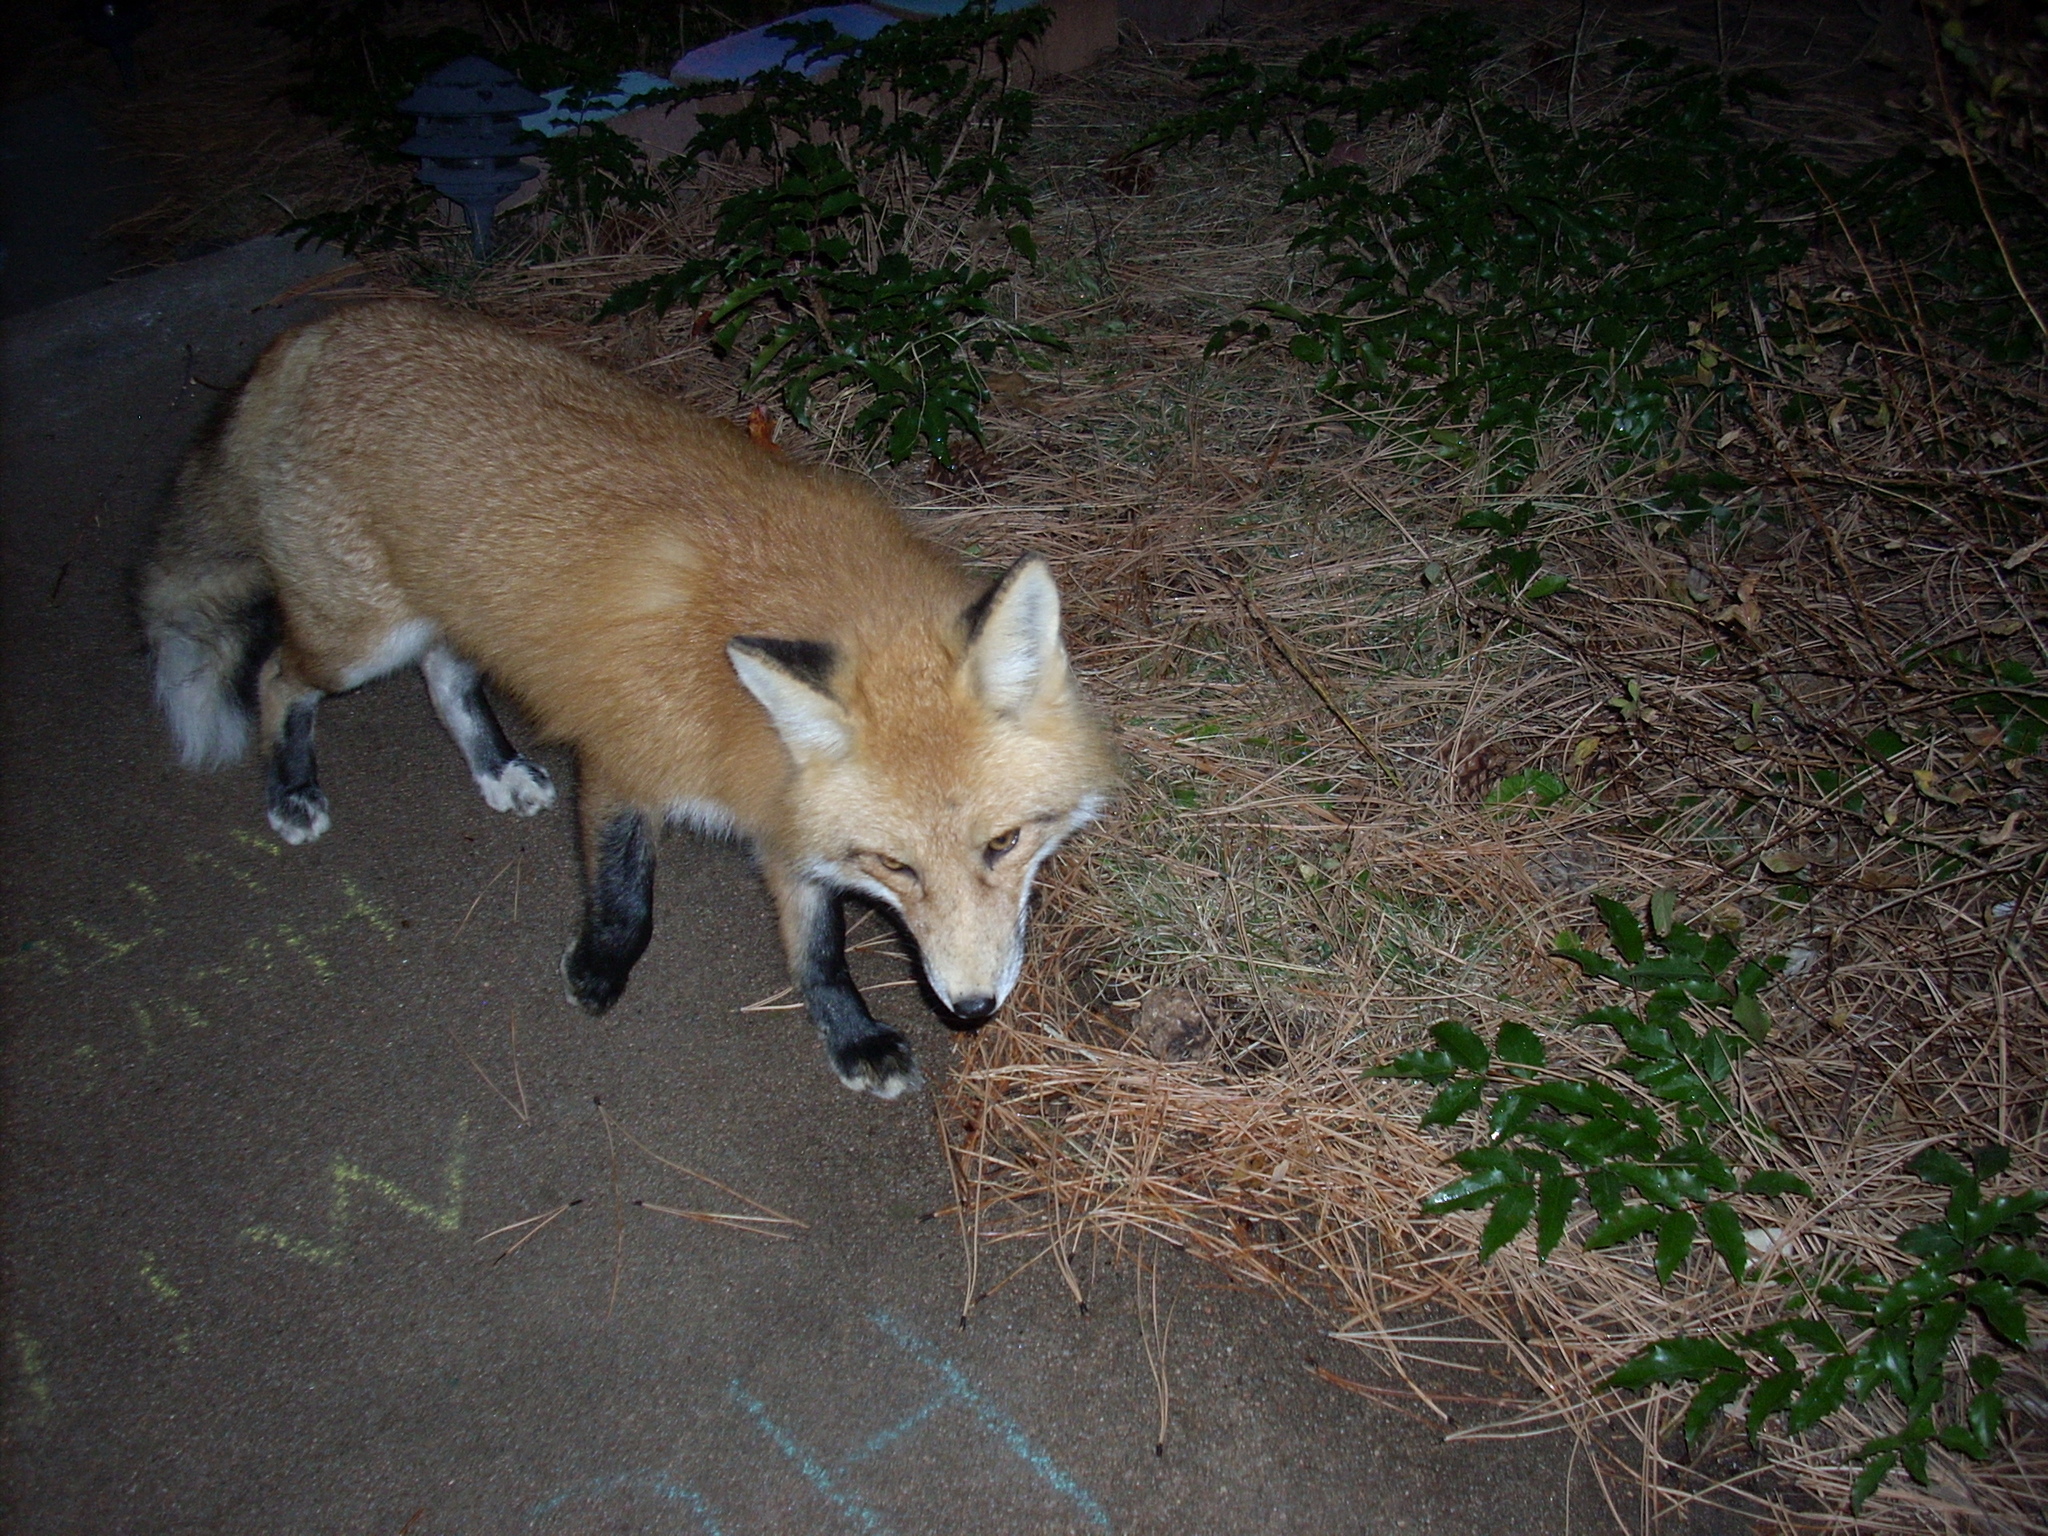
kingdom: Animalia
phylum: Chordata
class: Mammalia
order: Carnivora
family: Canidae
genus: Vulpes
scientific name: Vulpes vulpes
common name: Red fox
